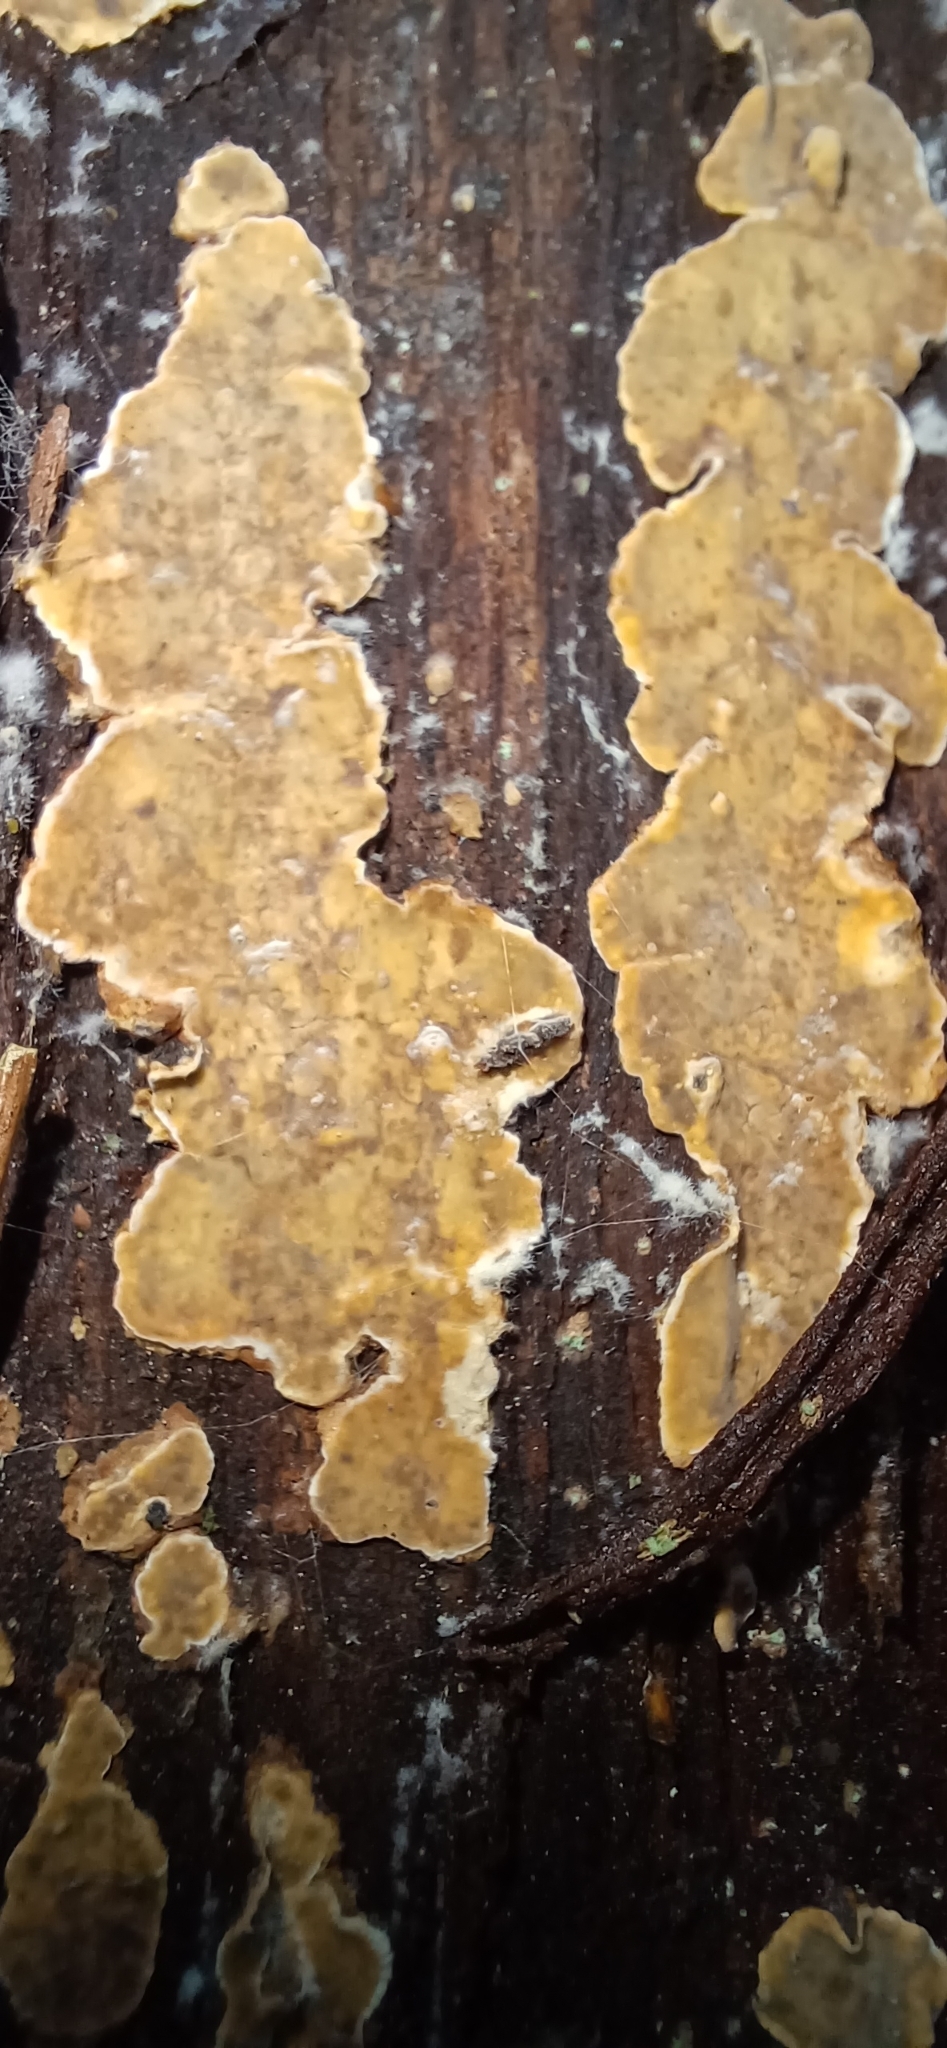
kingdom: Fungi
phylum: Basidiomycota
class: Agaricomycetes
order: Russulales
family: Stereaceae
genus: Stereum
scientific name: Stereum rugosum
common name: Bleeding broadleaf crust
